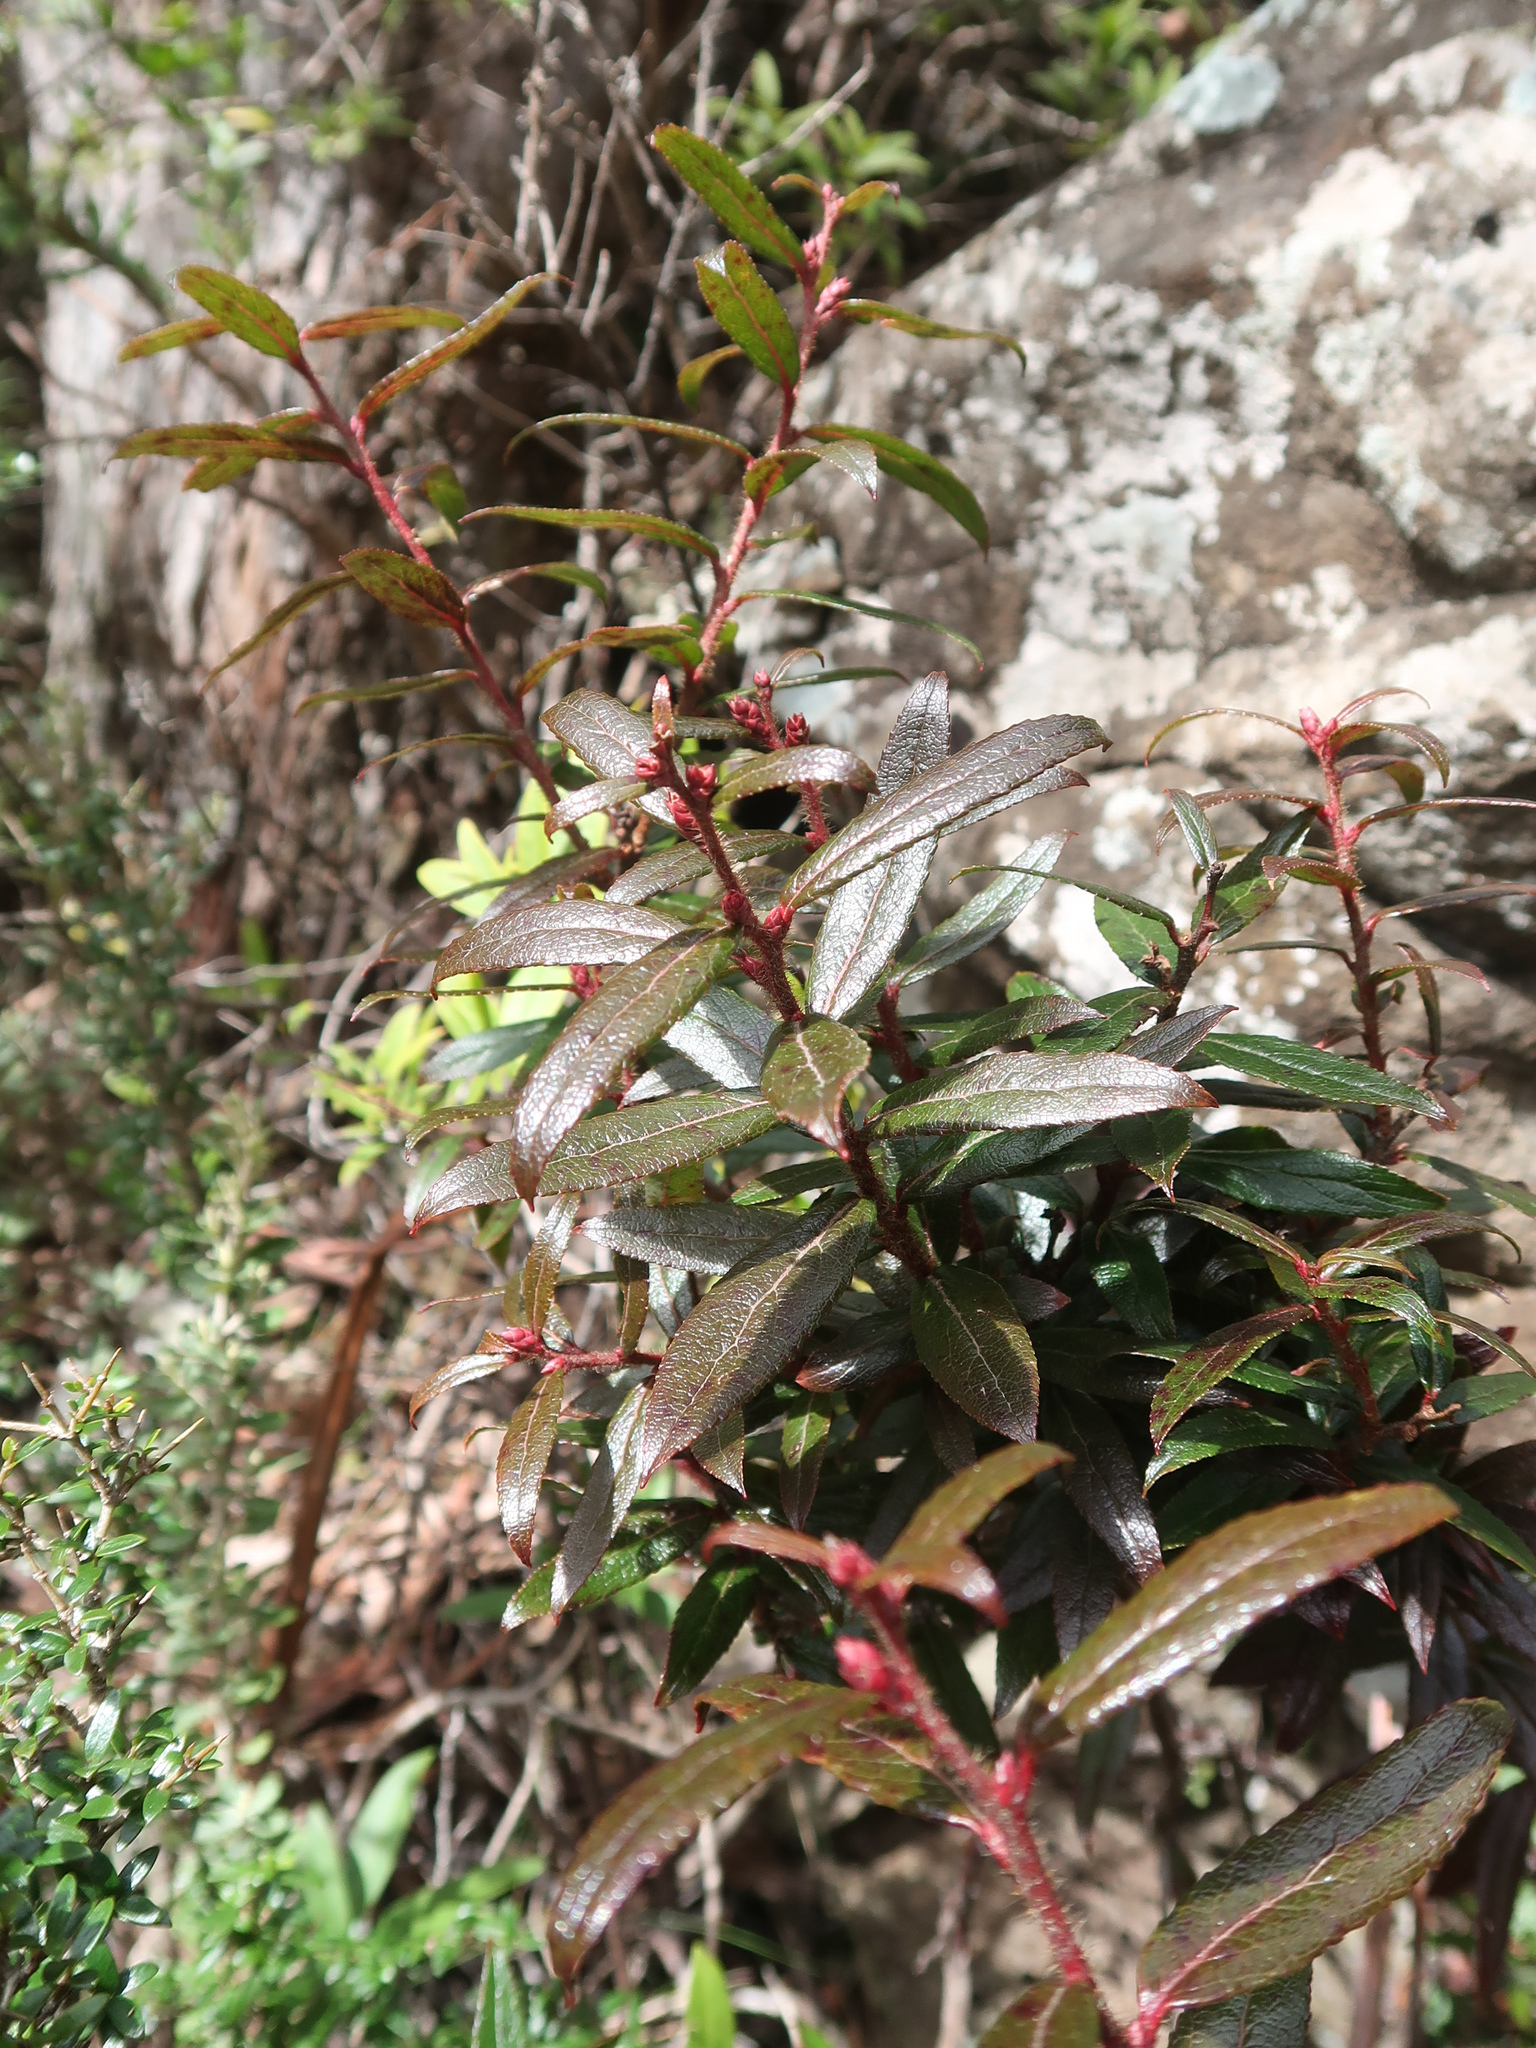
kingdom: Plantae
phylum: Tracheophyta
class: Magnoliopsida
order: Ericales
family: Ericaceae
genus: Gaultheria
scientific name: Gaultheria hispida
